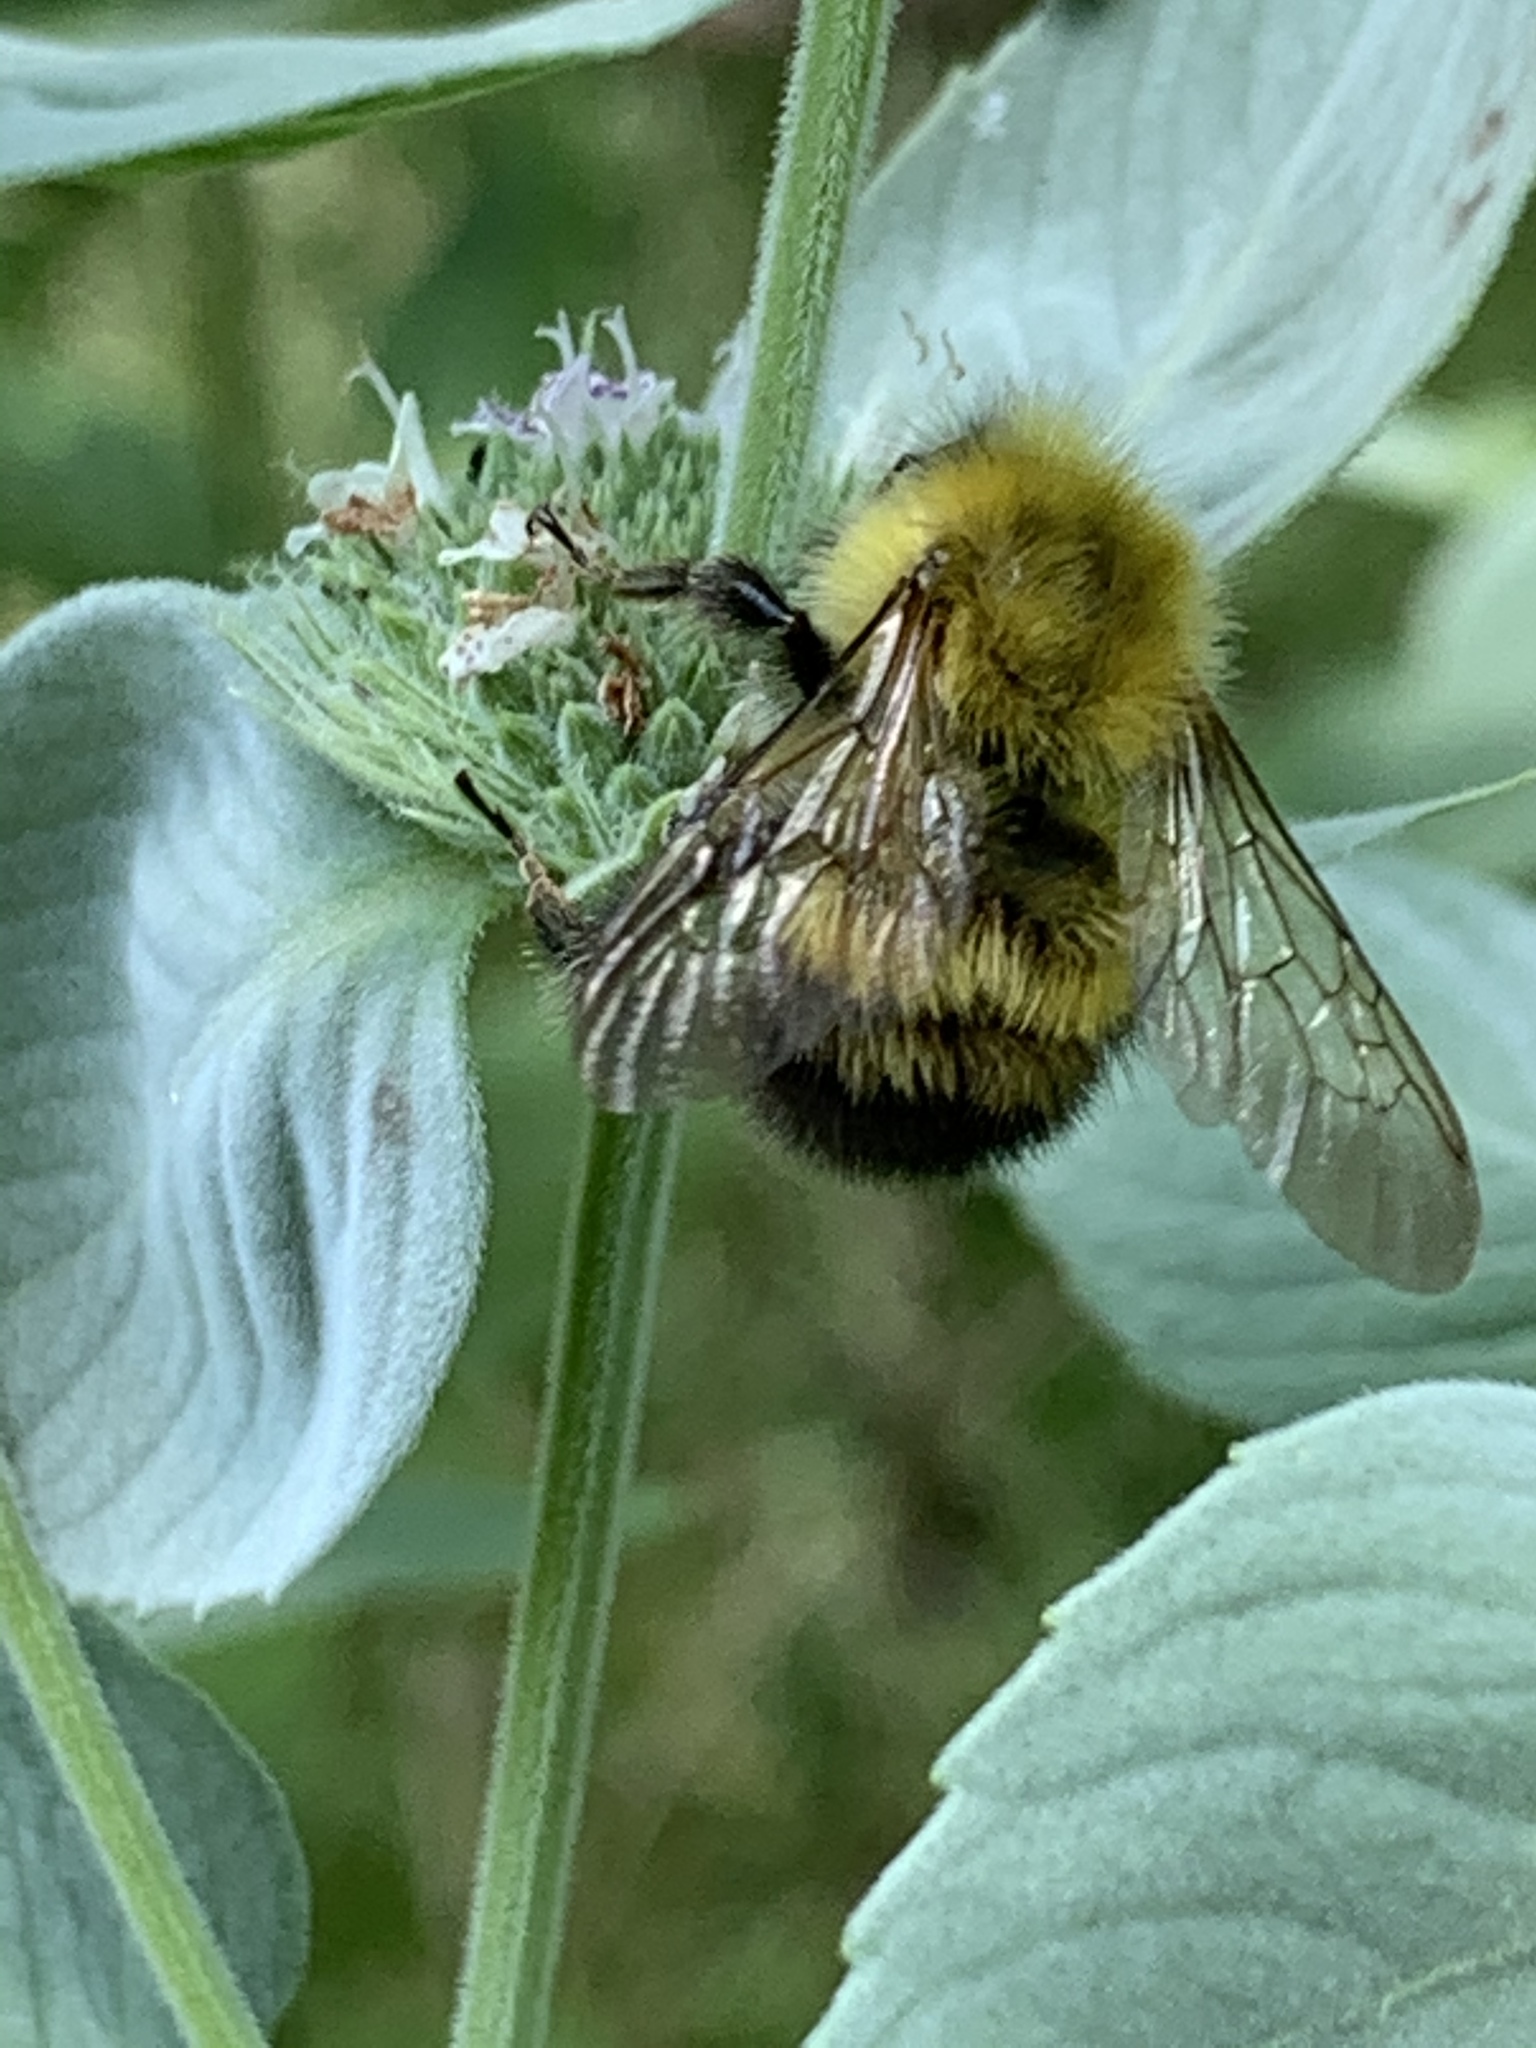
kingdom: Animalia
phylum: Arthropoda
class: Insecta
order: Hymenoptera
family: Apidae
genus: Bombus
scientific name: Bombus perplexus
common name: Confusing bumble bee
